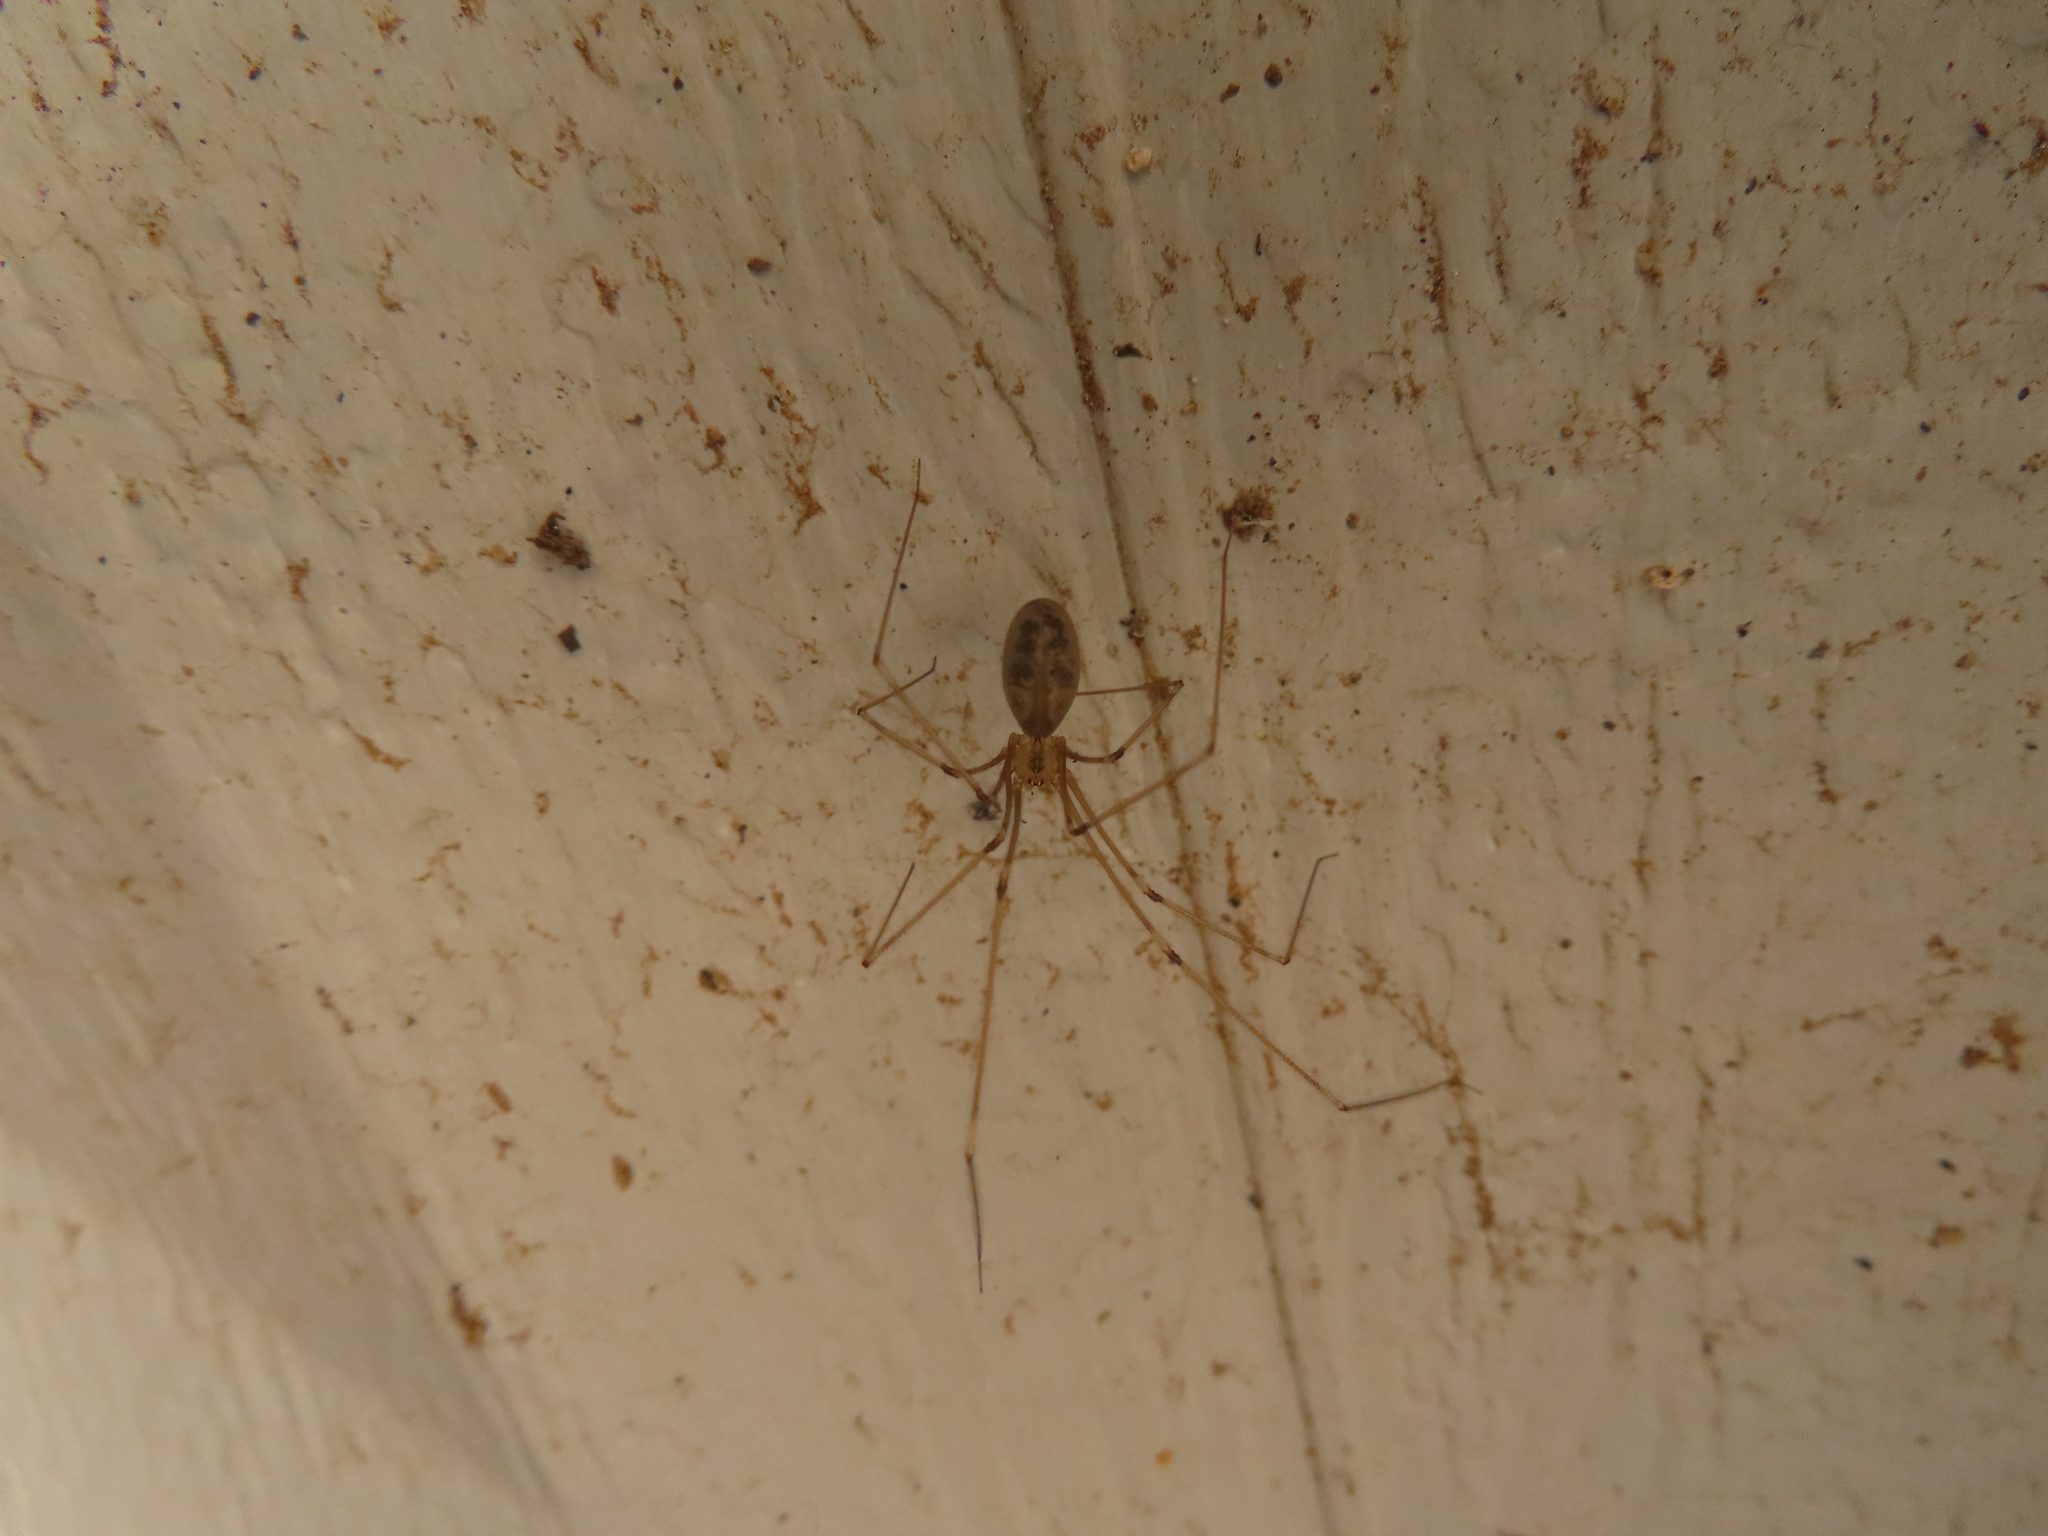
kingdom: Animalia
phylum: Arthropoda
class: Arachnida
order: Araneae
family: Pholcidae
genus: Pholcus
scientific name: Pholcus manueli
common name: Cellar spider
